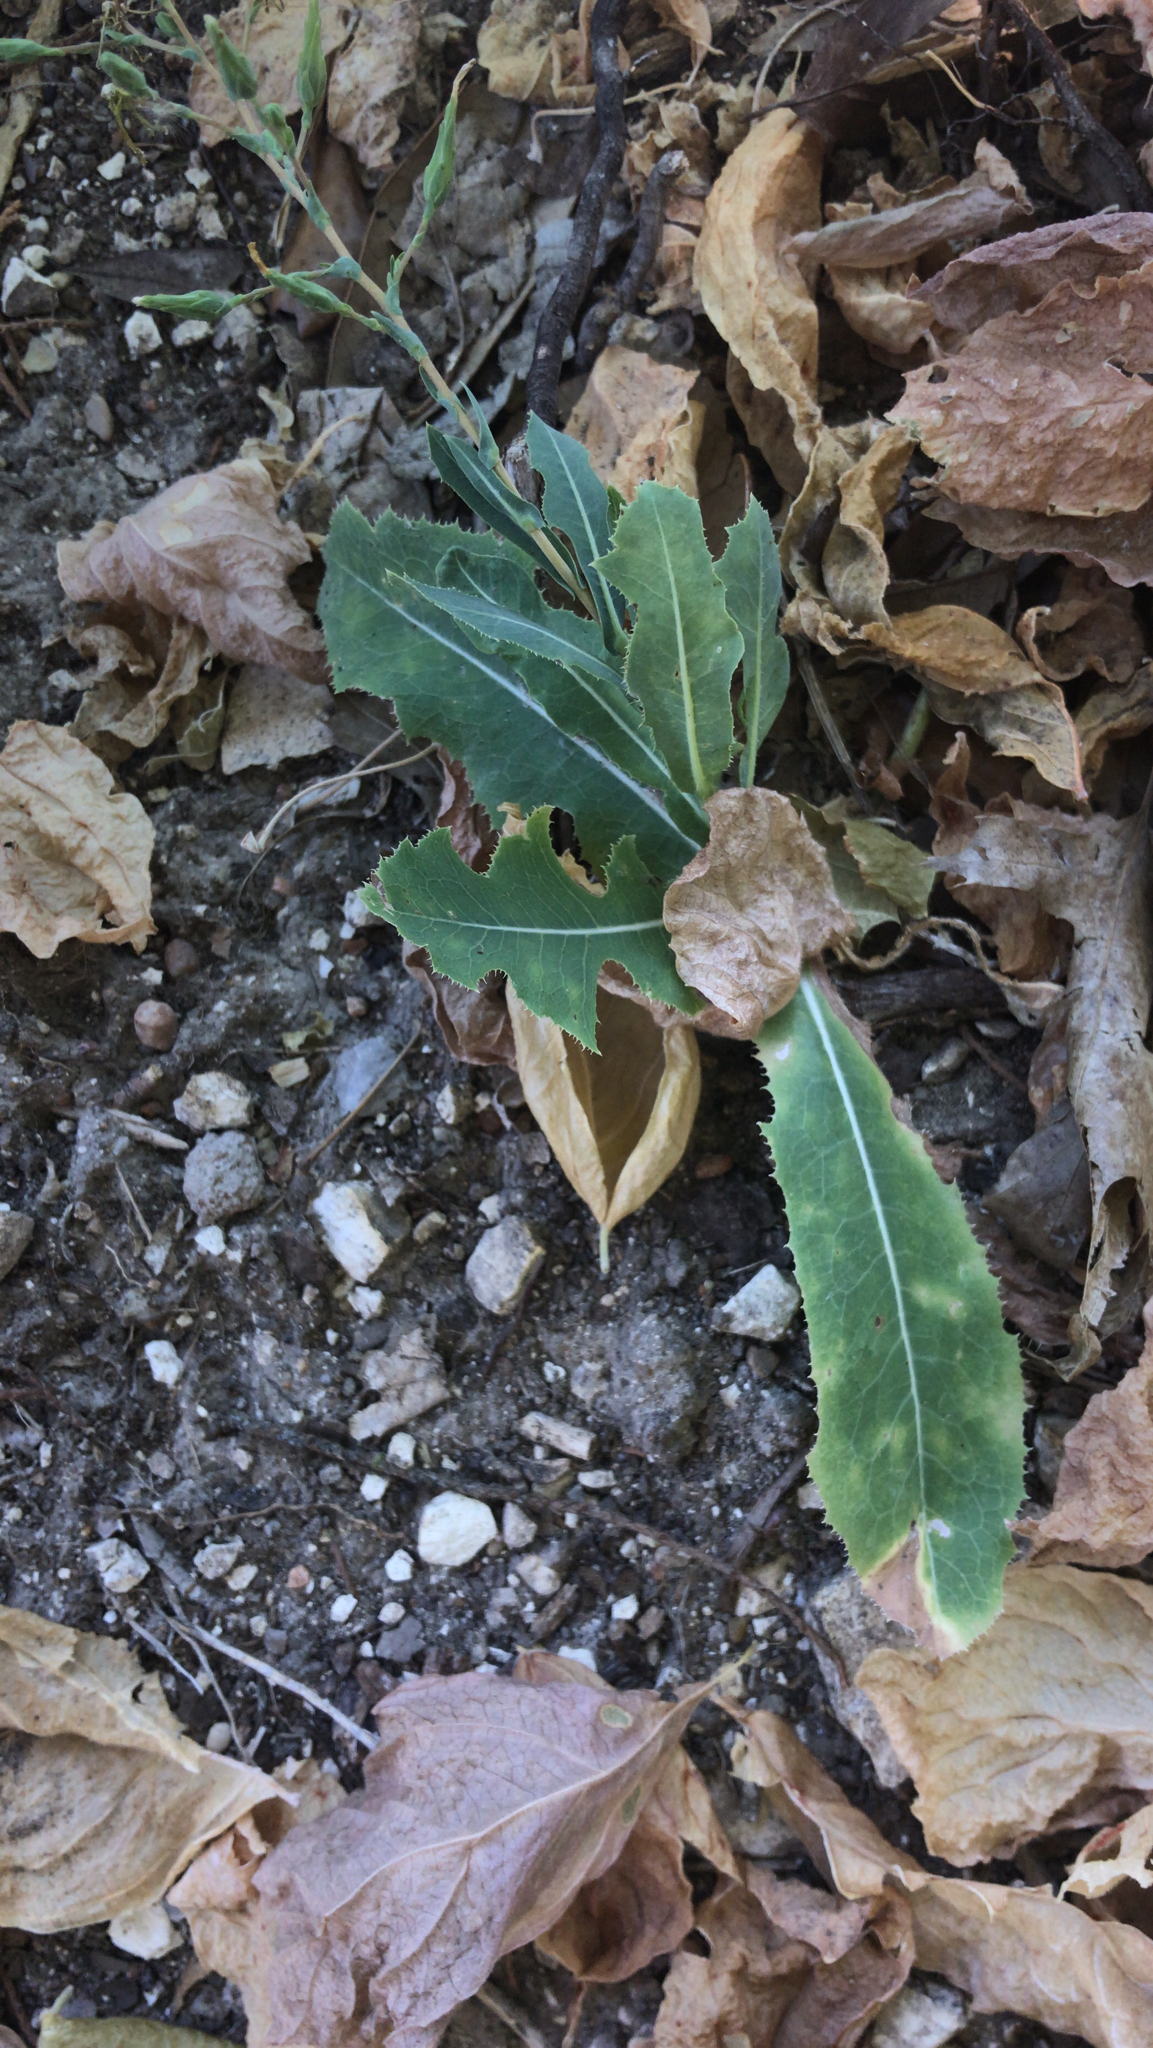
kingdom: Plantae
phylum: Tracheophyta
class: Magnoliopsida
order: Asterales
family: Asteraceae
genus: Lactuca
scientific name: Lactuca serriola
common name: Prickly lettuce
